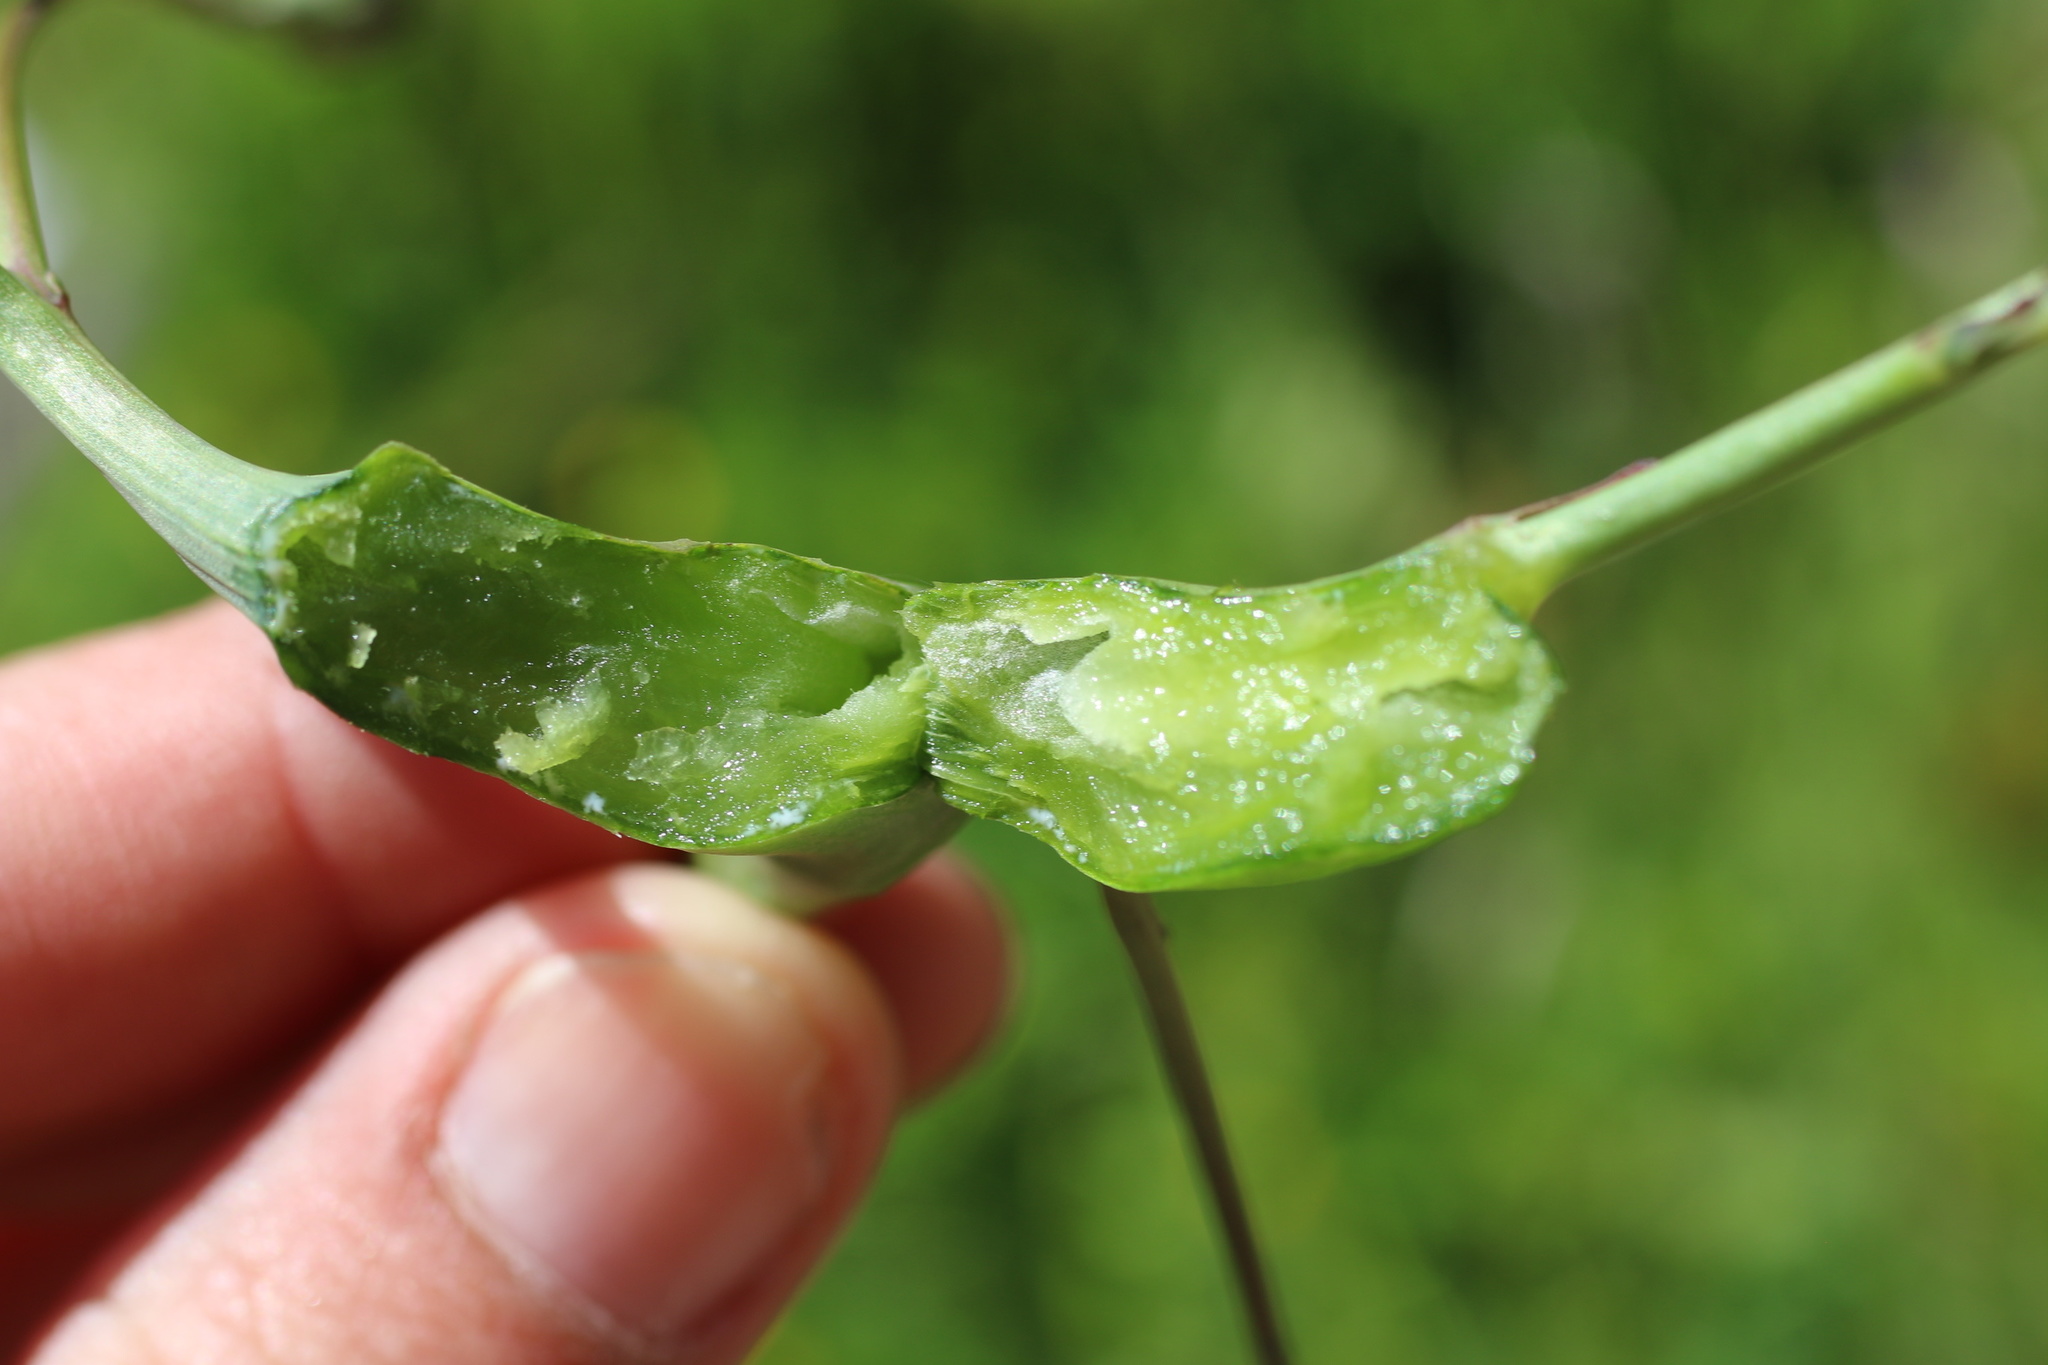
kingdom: Animalia
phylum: Arthropoda
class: Insecta
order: Hymenoptera
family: Cynipidae
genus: Phanacis
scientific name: Phanacis hypochoeridis
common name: Gall wasp
